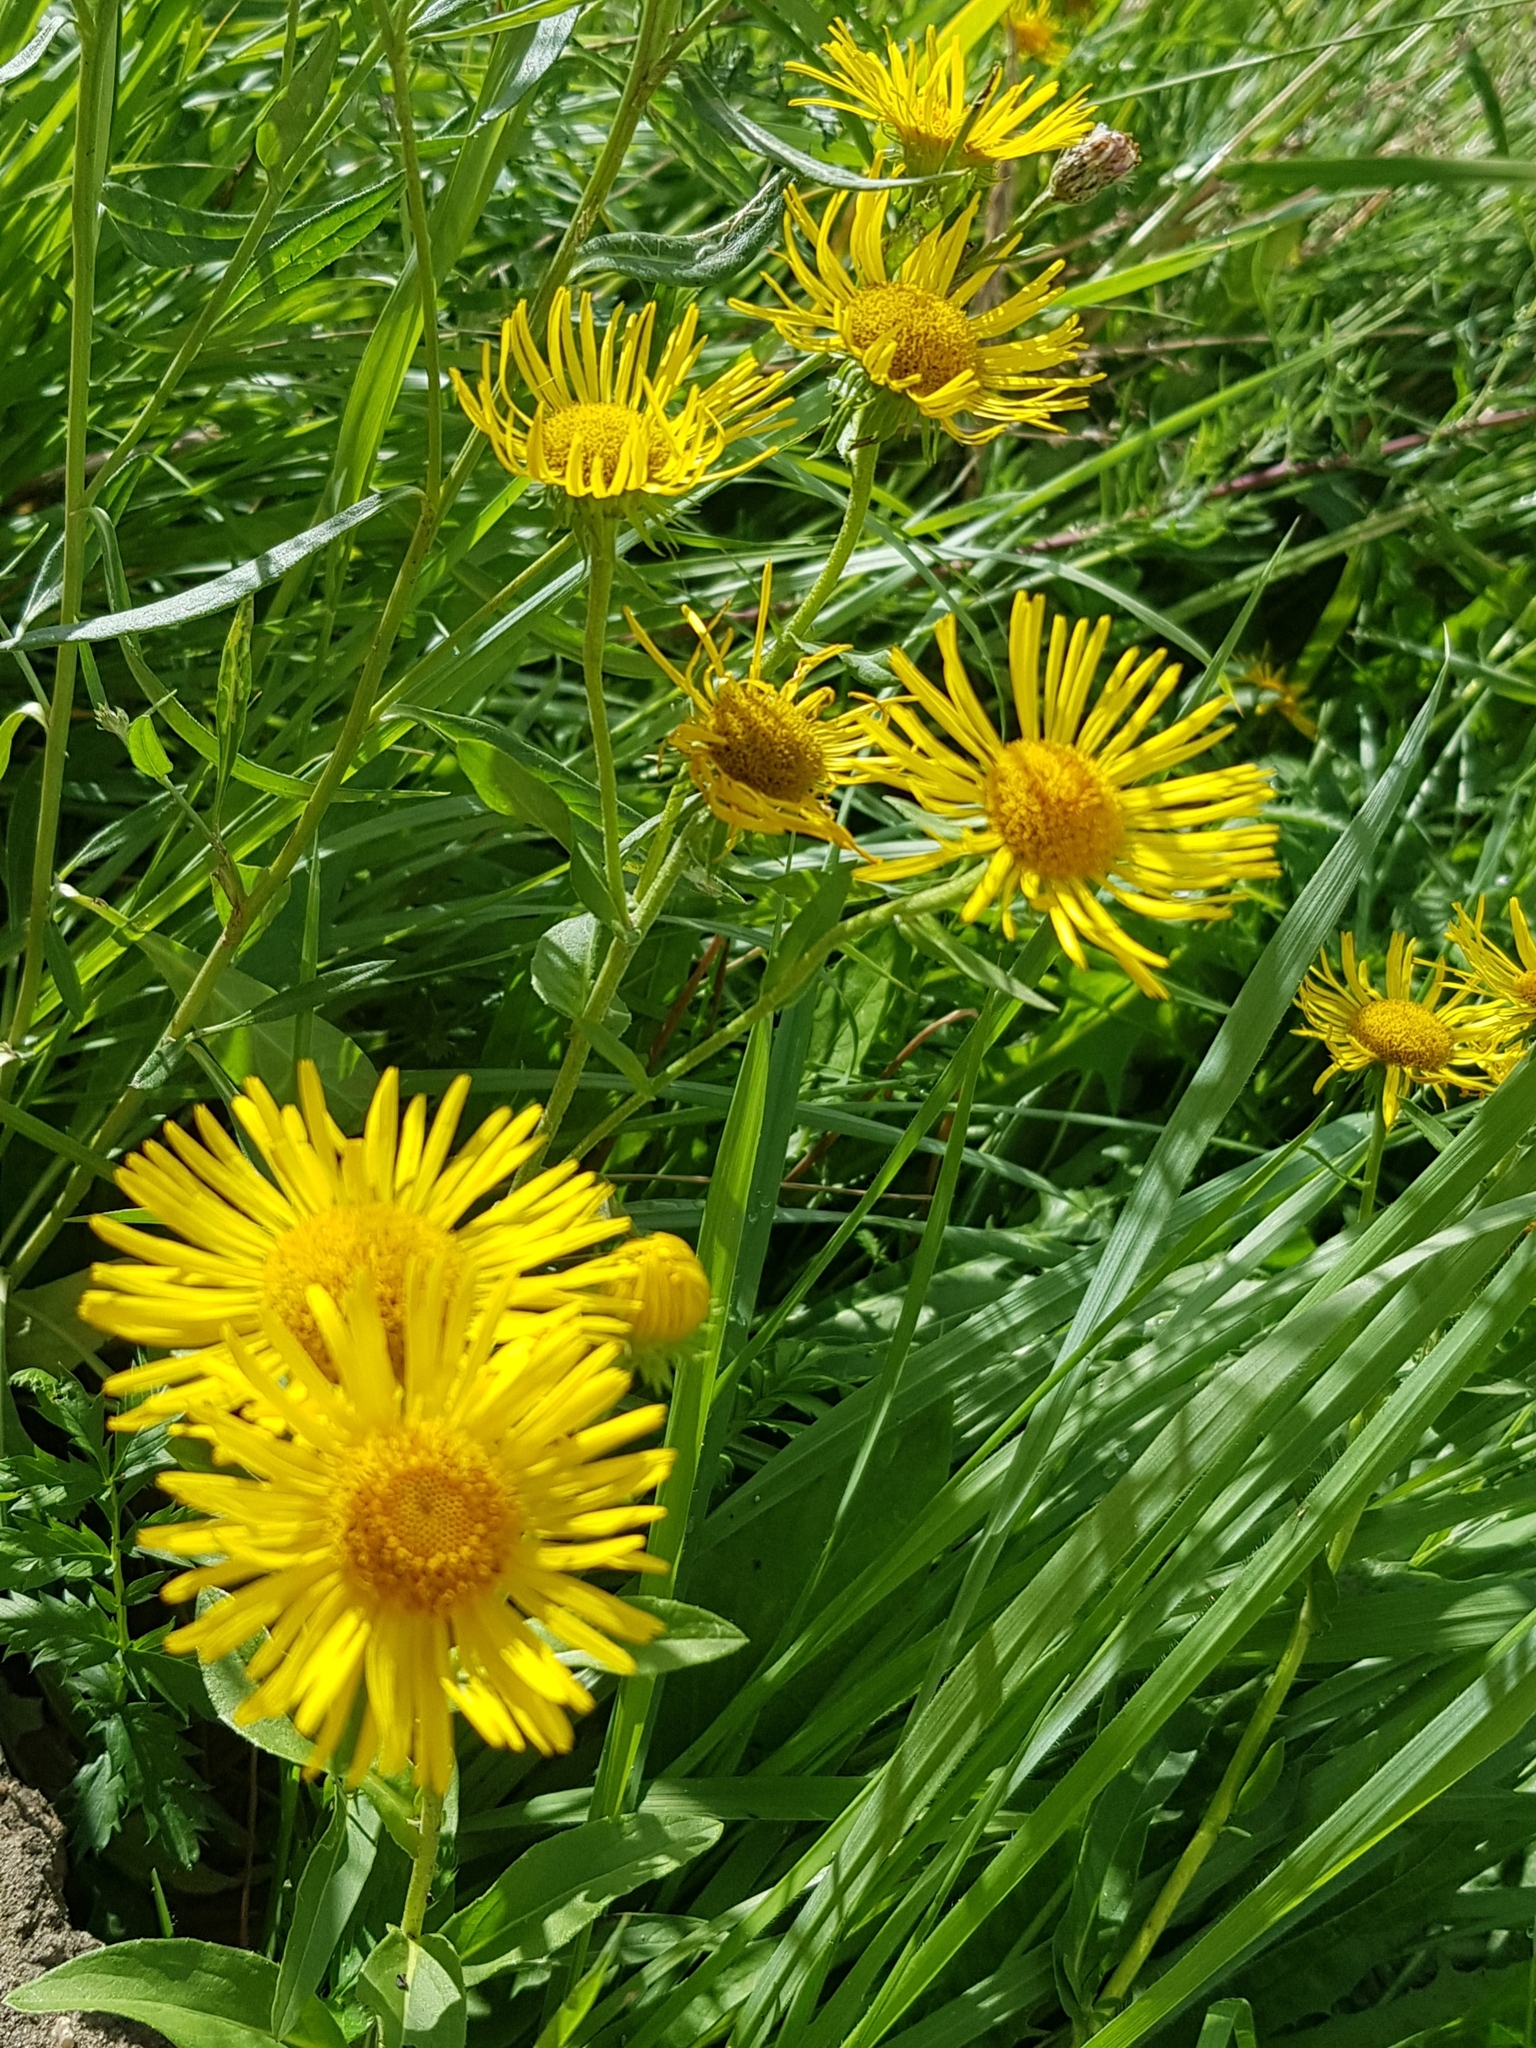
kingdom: Plantae
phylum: Tracheophyta
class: Magnoliopsida
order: Asterales
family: Asteraceae
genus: Pentanema
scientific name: Pentanema britannicum
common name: British elecampane
